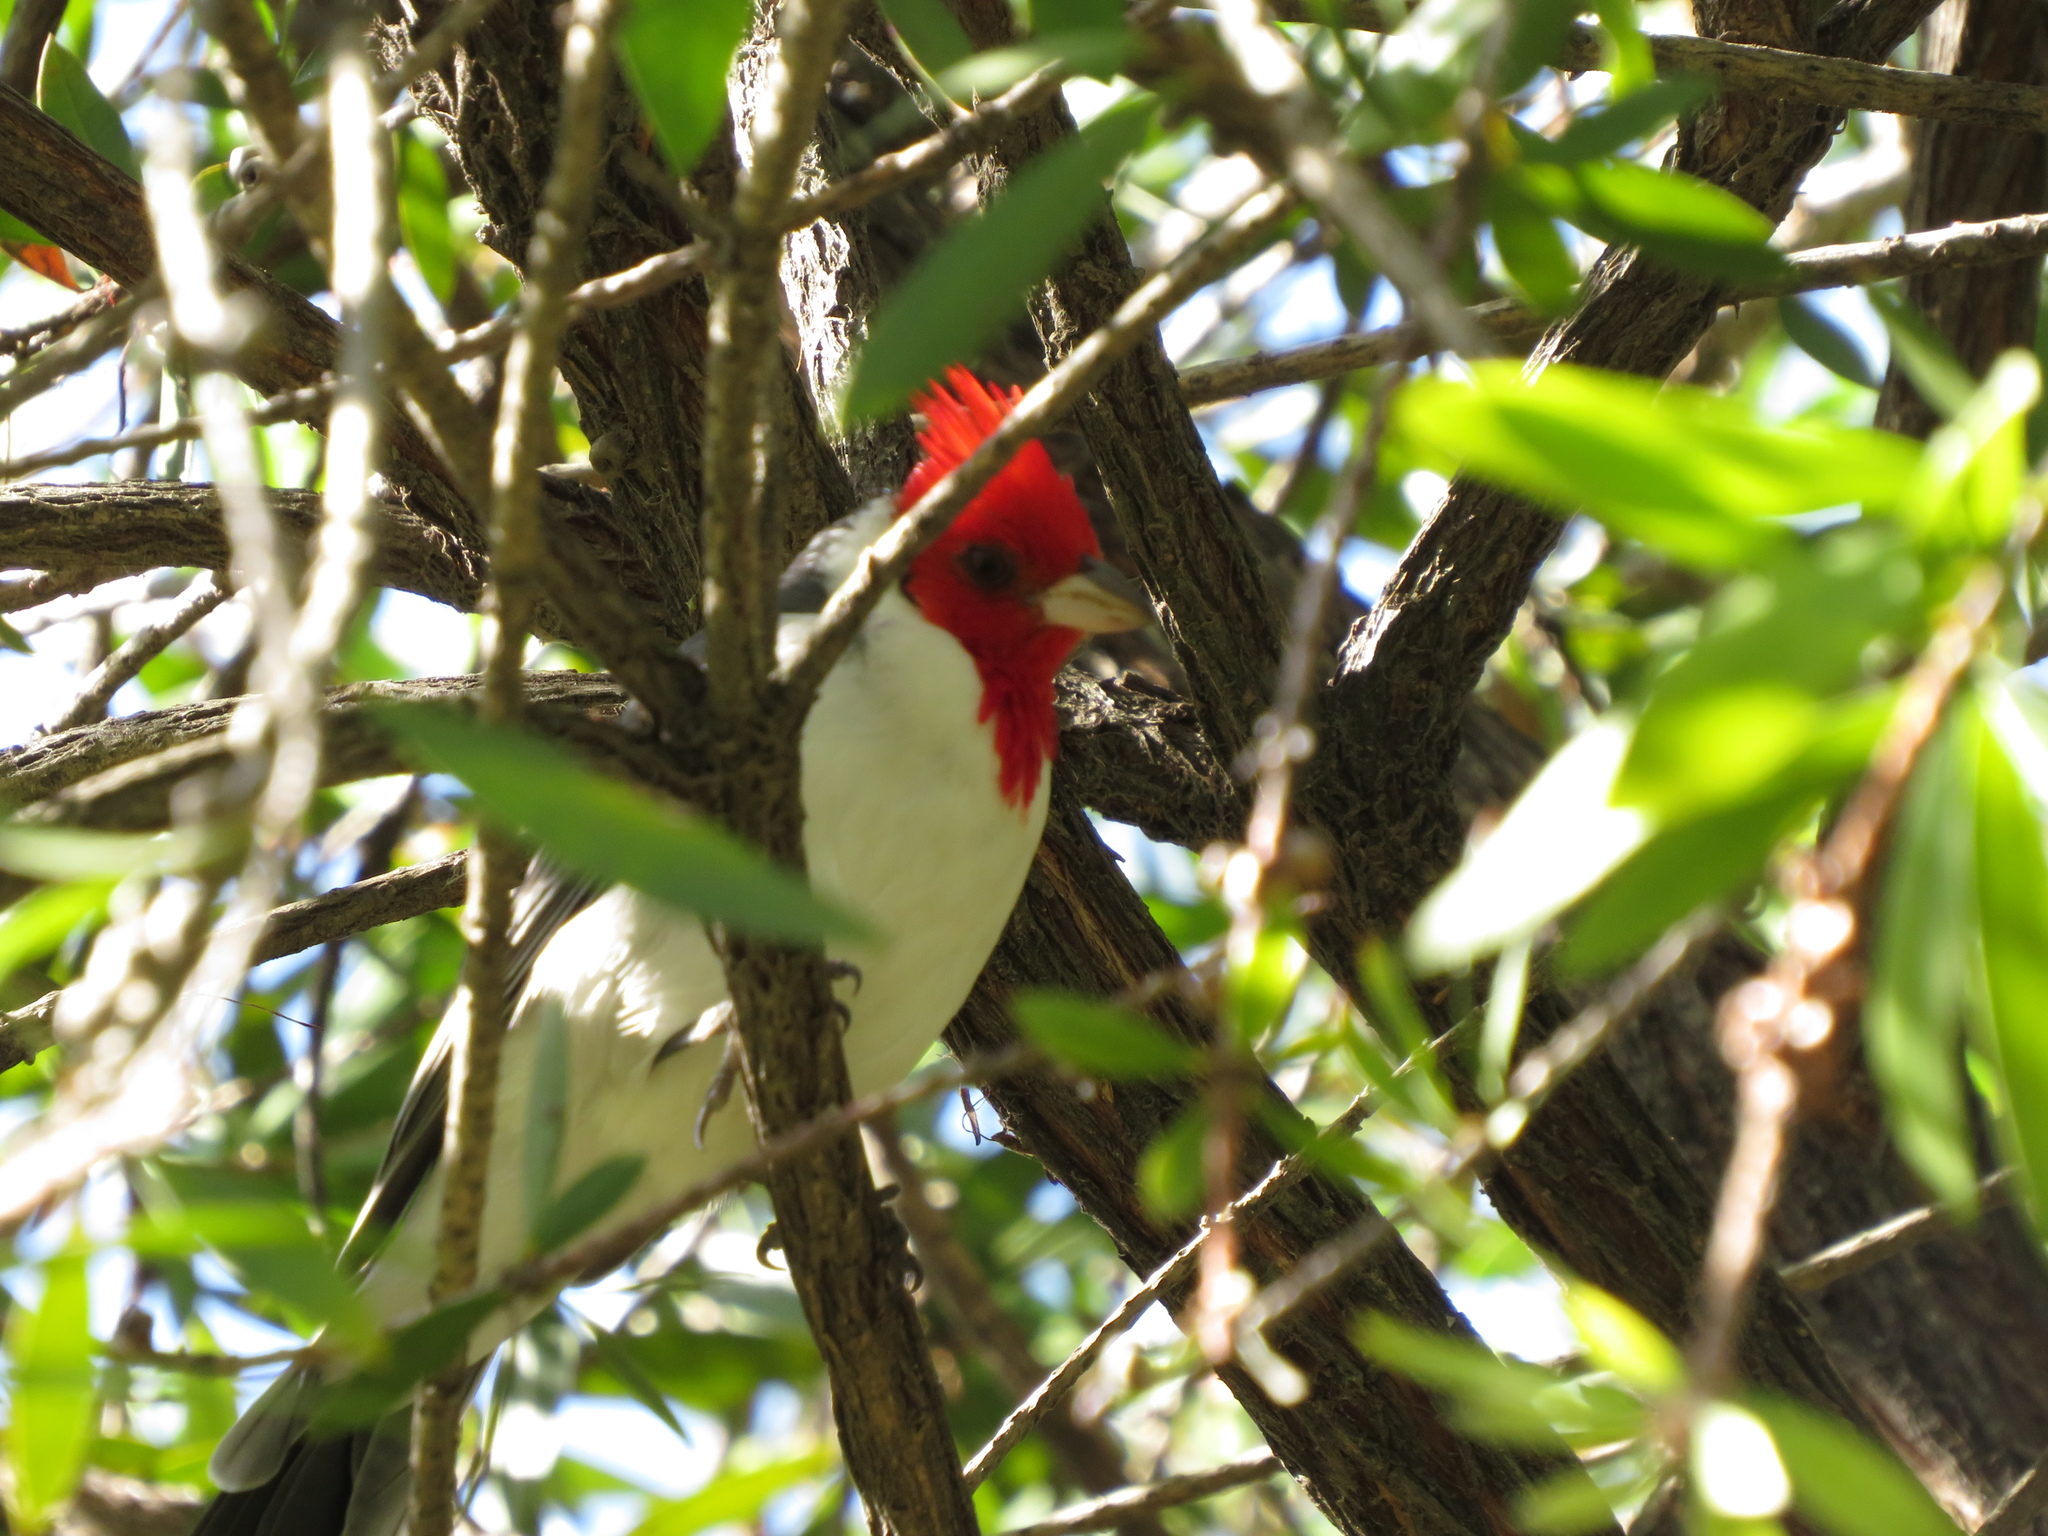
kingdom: Animalia
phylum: Chordata
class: Aves
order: Passeriformes
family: Thraupidae
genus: Paroaria
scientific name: Paroaria coronata
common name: Red-crested cardinal
